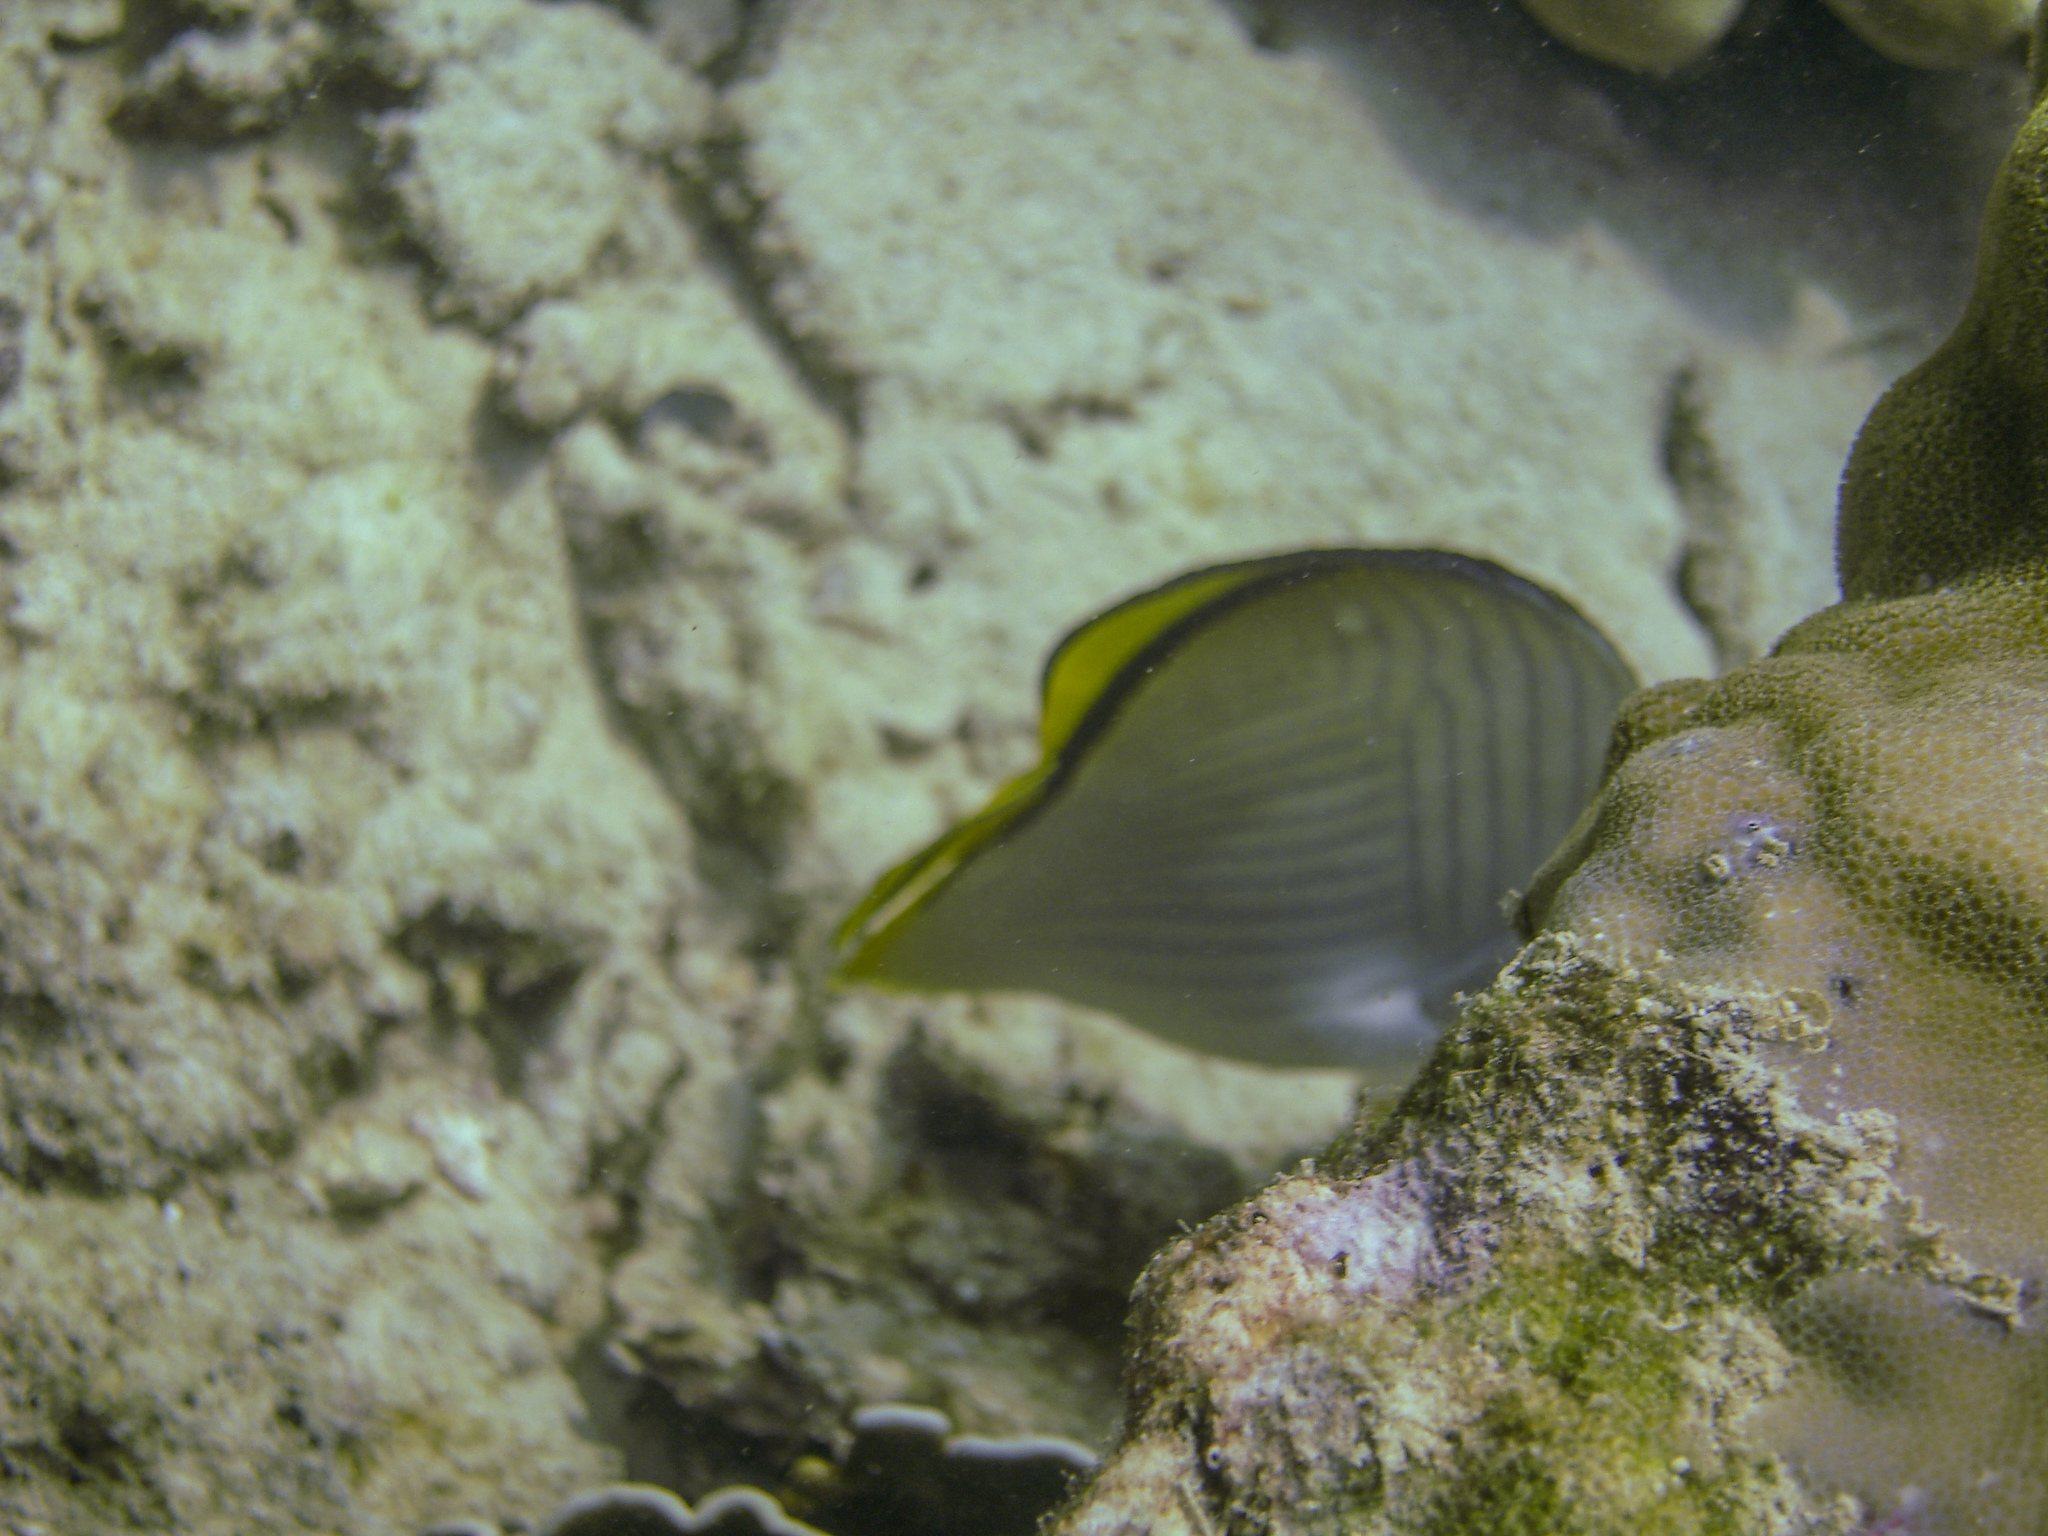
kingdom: Animalia
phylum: Chordata
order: Perciformes
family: Chaetodontidae
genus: Chaetodon
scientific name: Chaetodon vagabundus
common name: Vagabond butterflyfish
